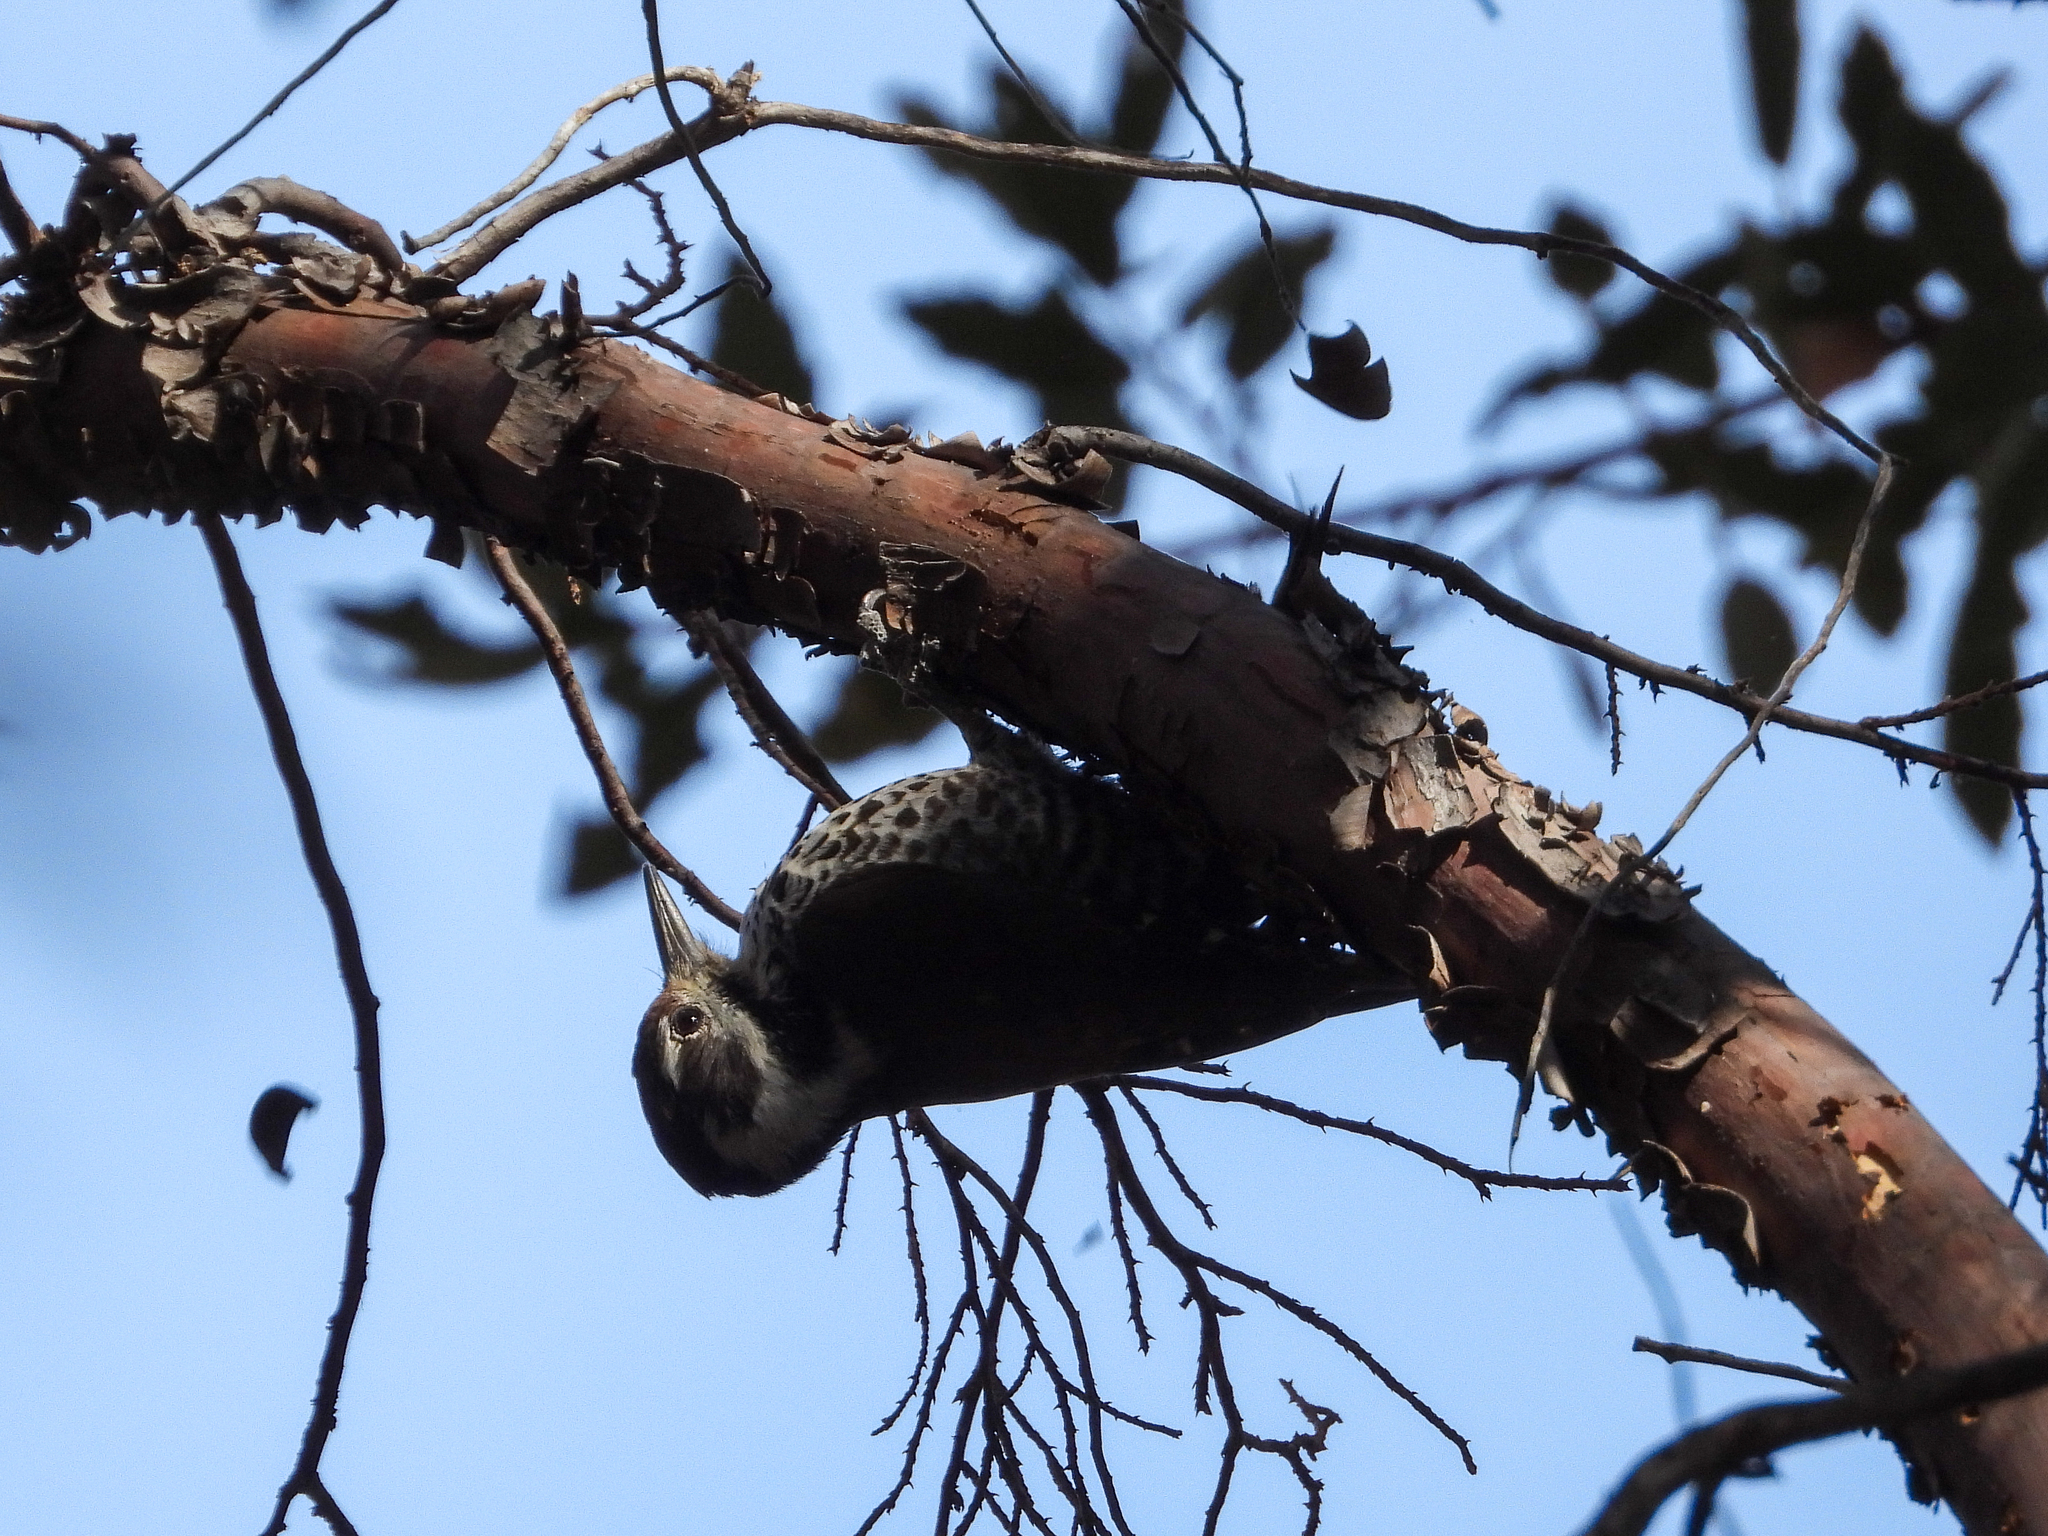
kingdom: Animalia
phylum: Chordata
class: Aves
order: Piciformes
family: Picidae
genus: Leuconotopicus
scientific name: Leuconotopicus arizonae
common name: Arizona woodpecker
